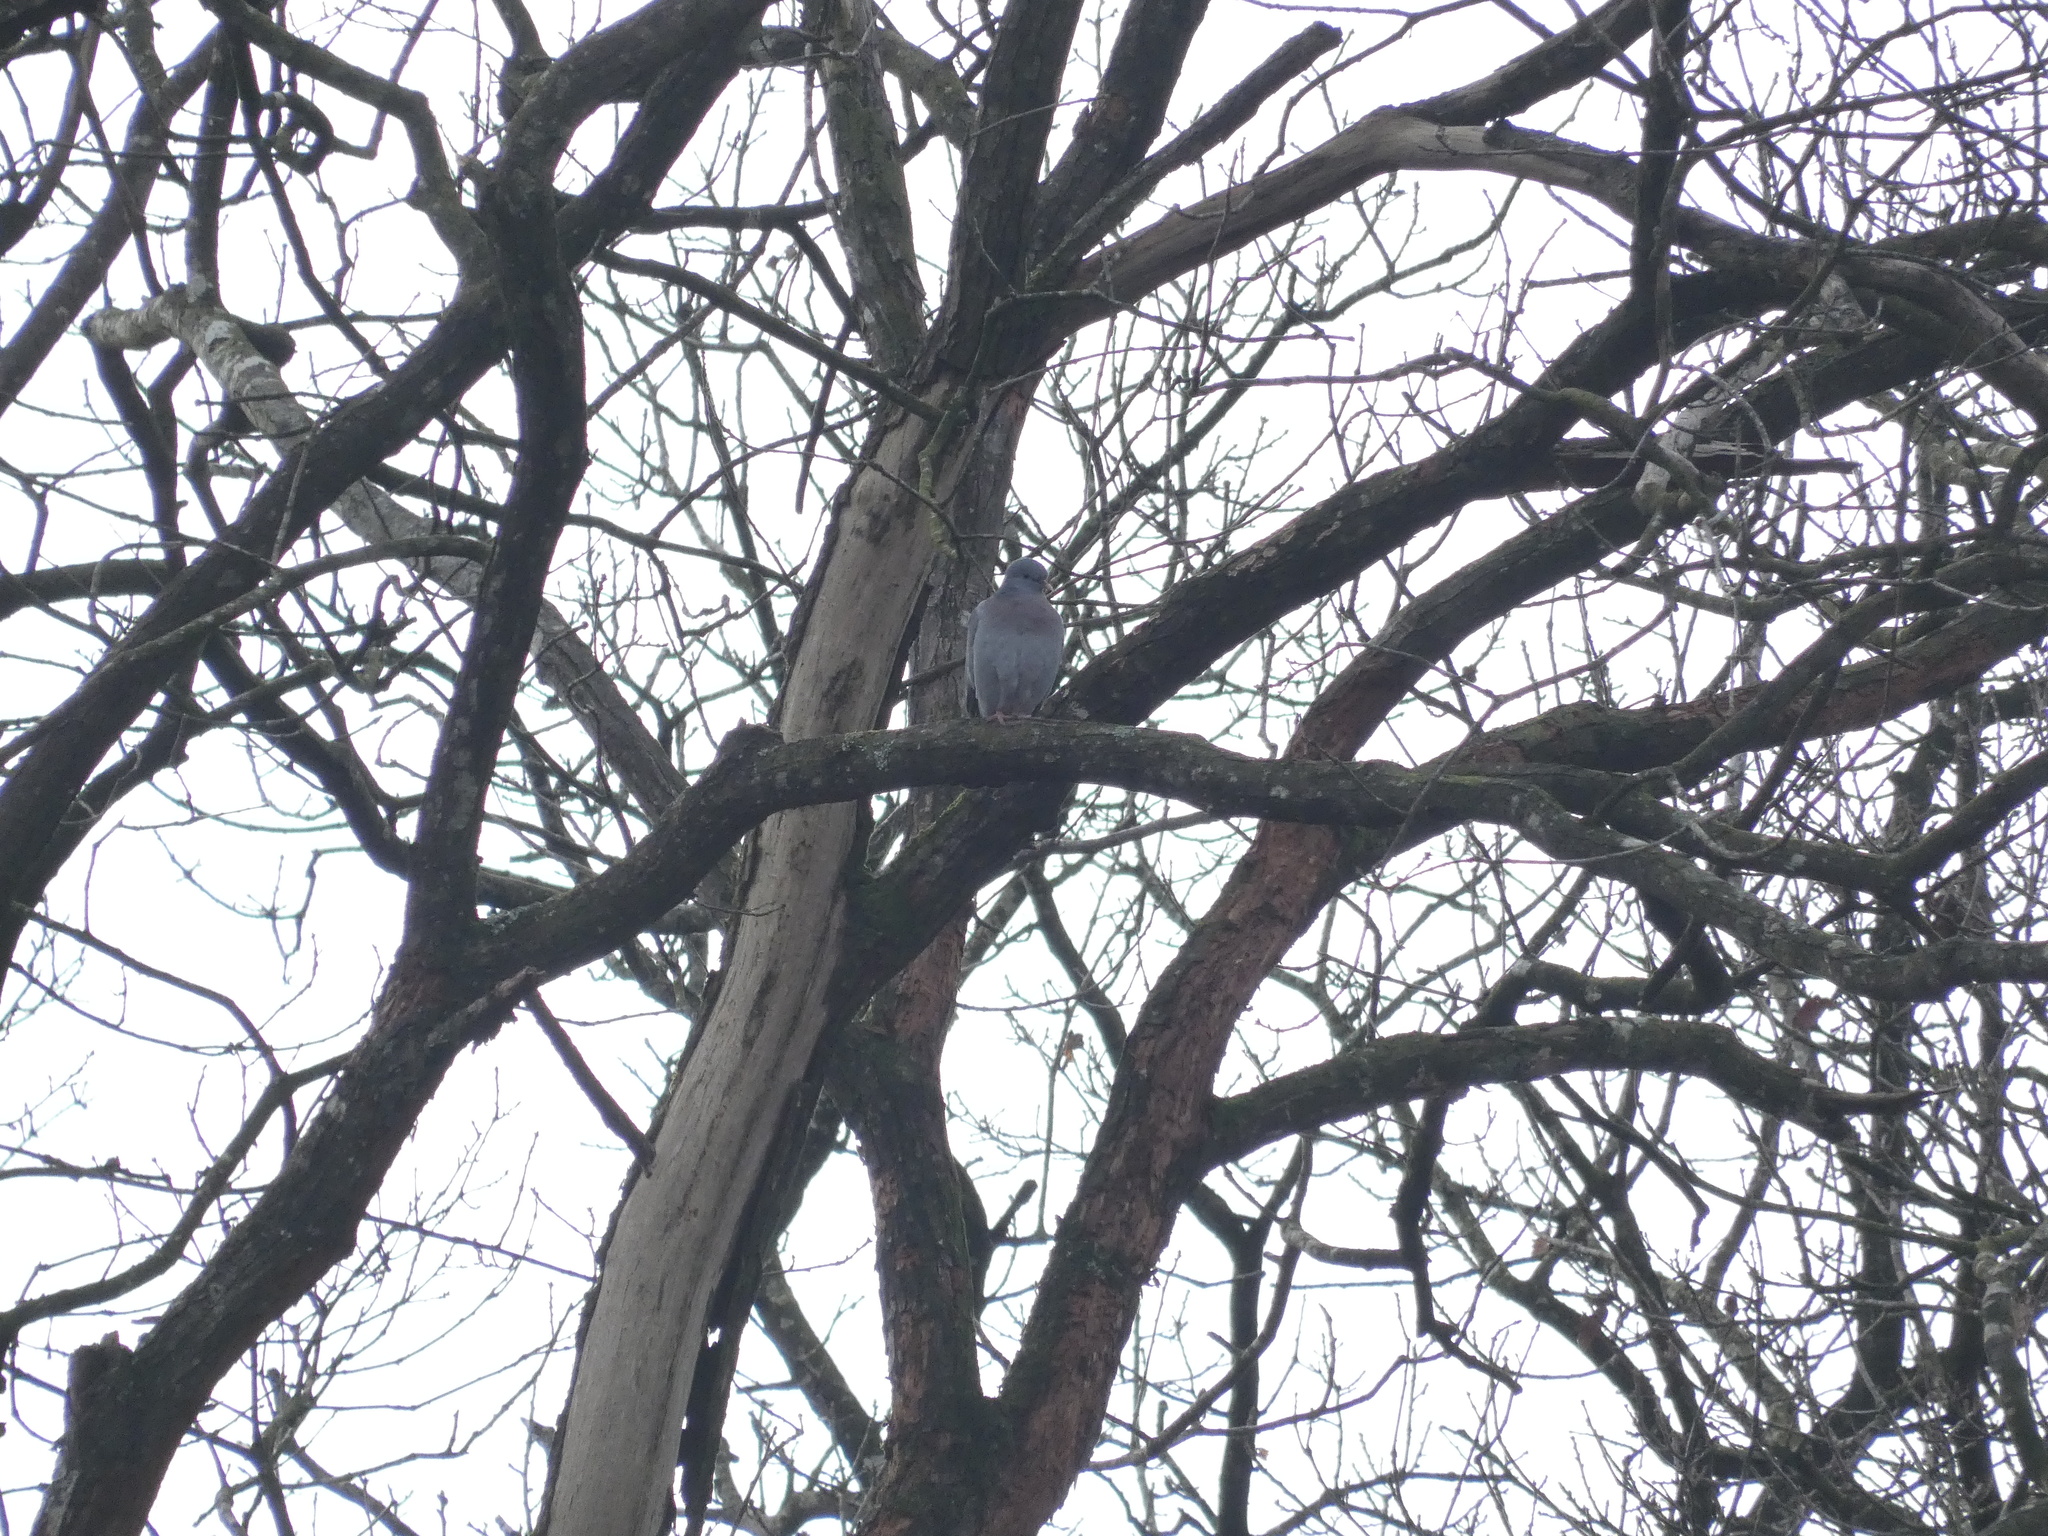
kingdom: Animalia
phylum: Chordata
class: Aves
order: Columbiformes
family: Columbidae
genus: Columba
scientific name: Columba oenas
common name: Stock dove
